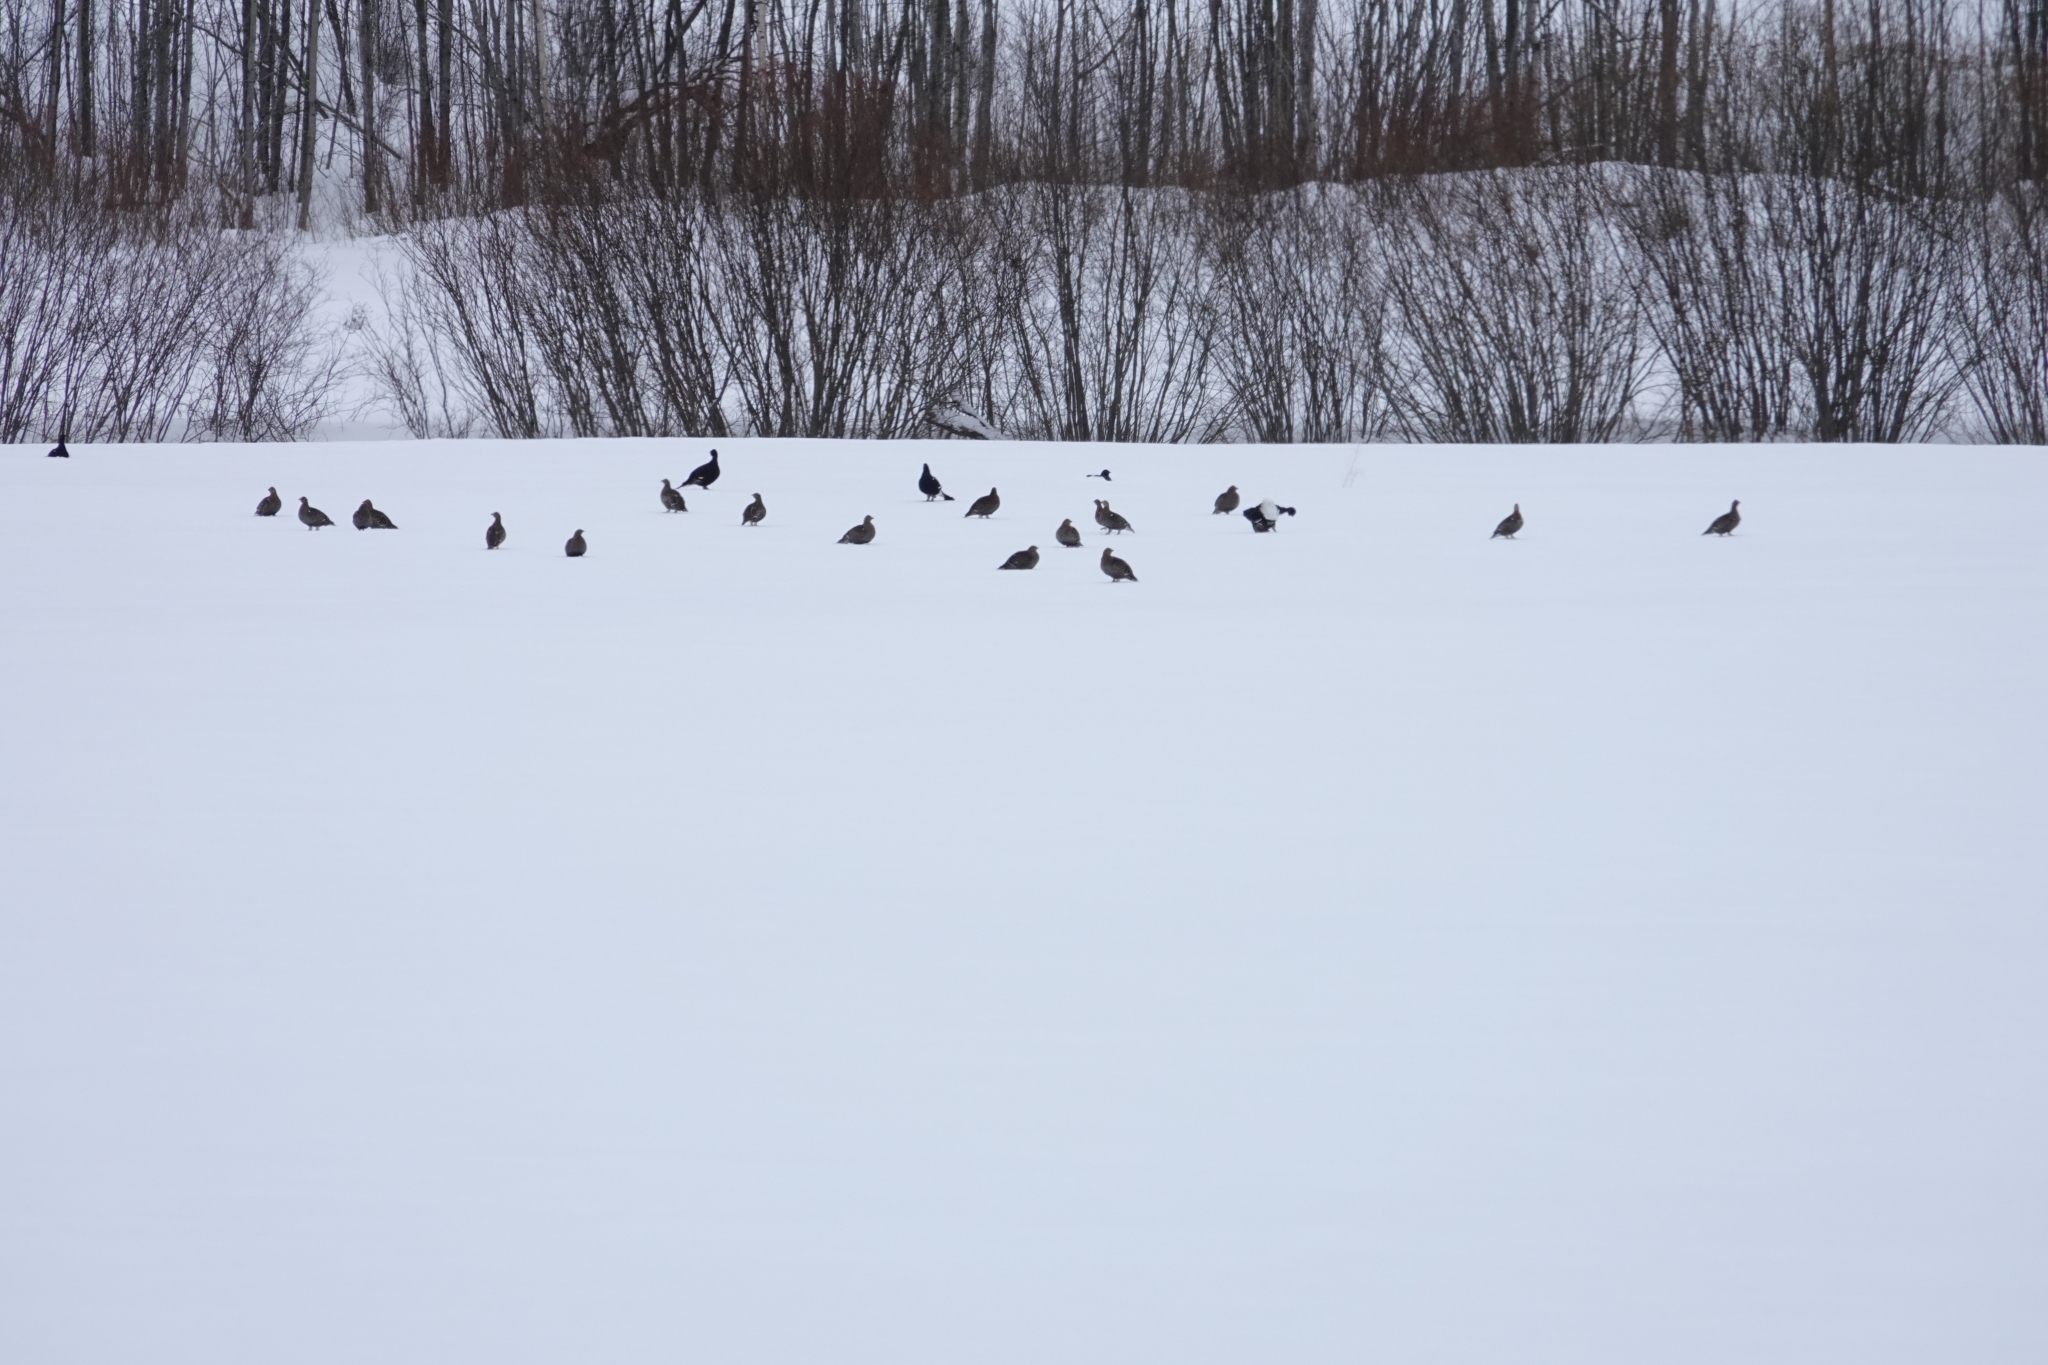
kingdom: Animalia
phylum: Chordata
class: Aves
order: Galliformes
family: Phasianidae
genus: Lyrurus
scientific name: Lyrurus tetrix
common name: Black grouse
